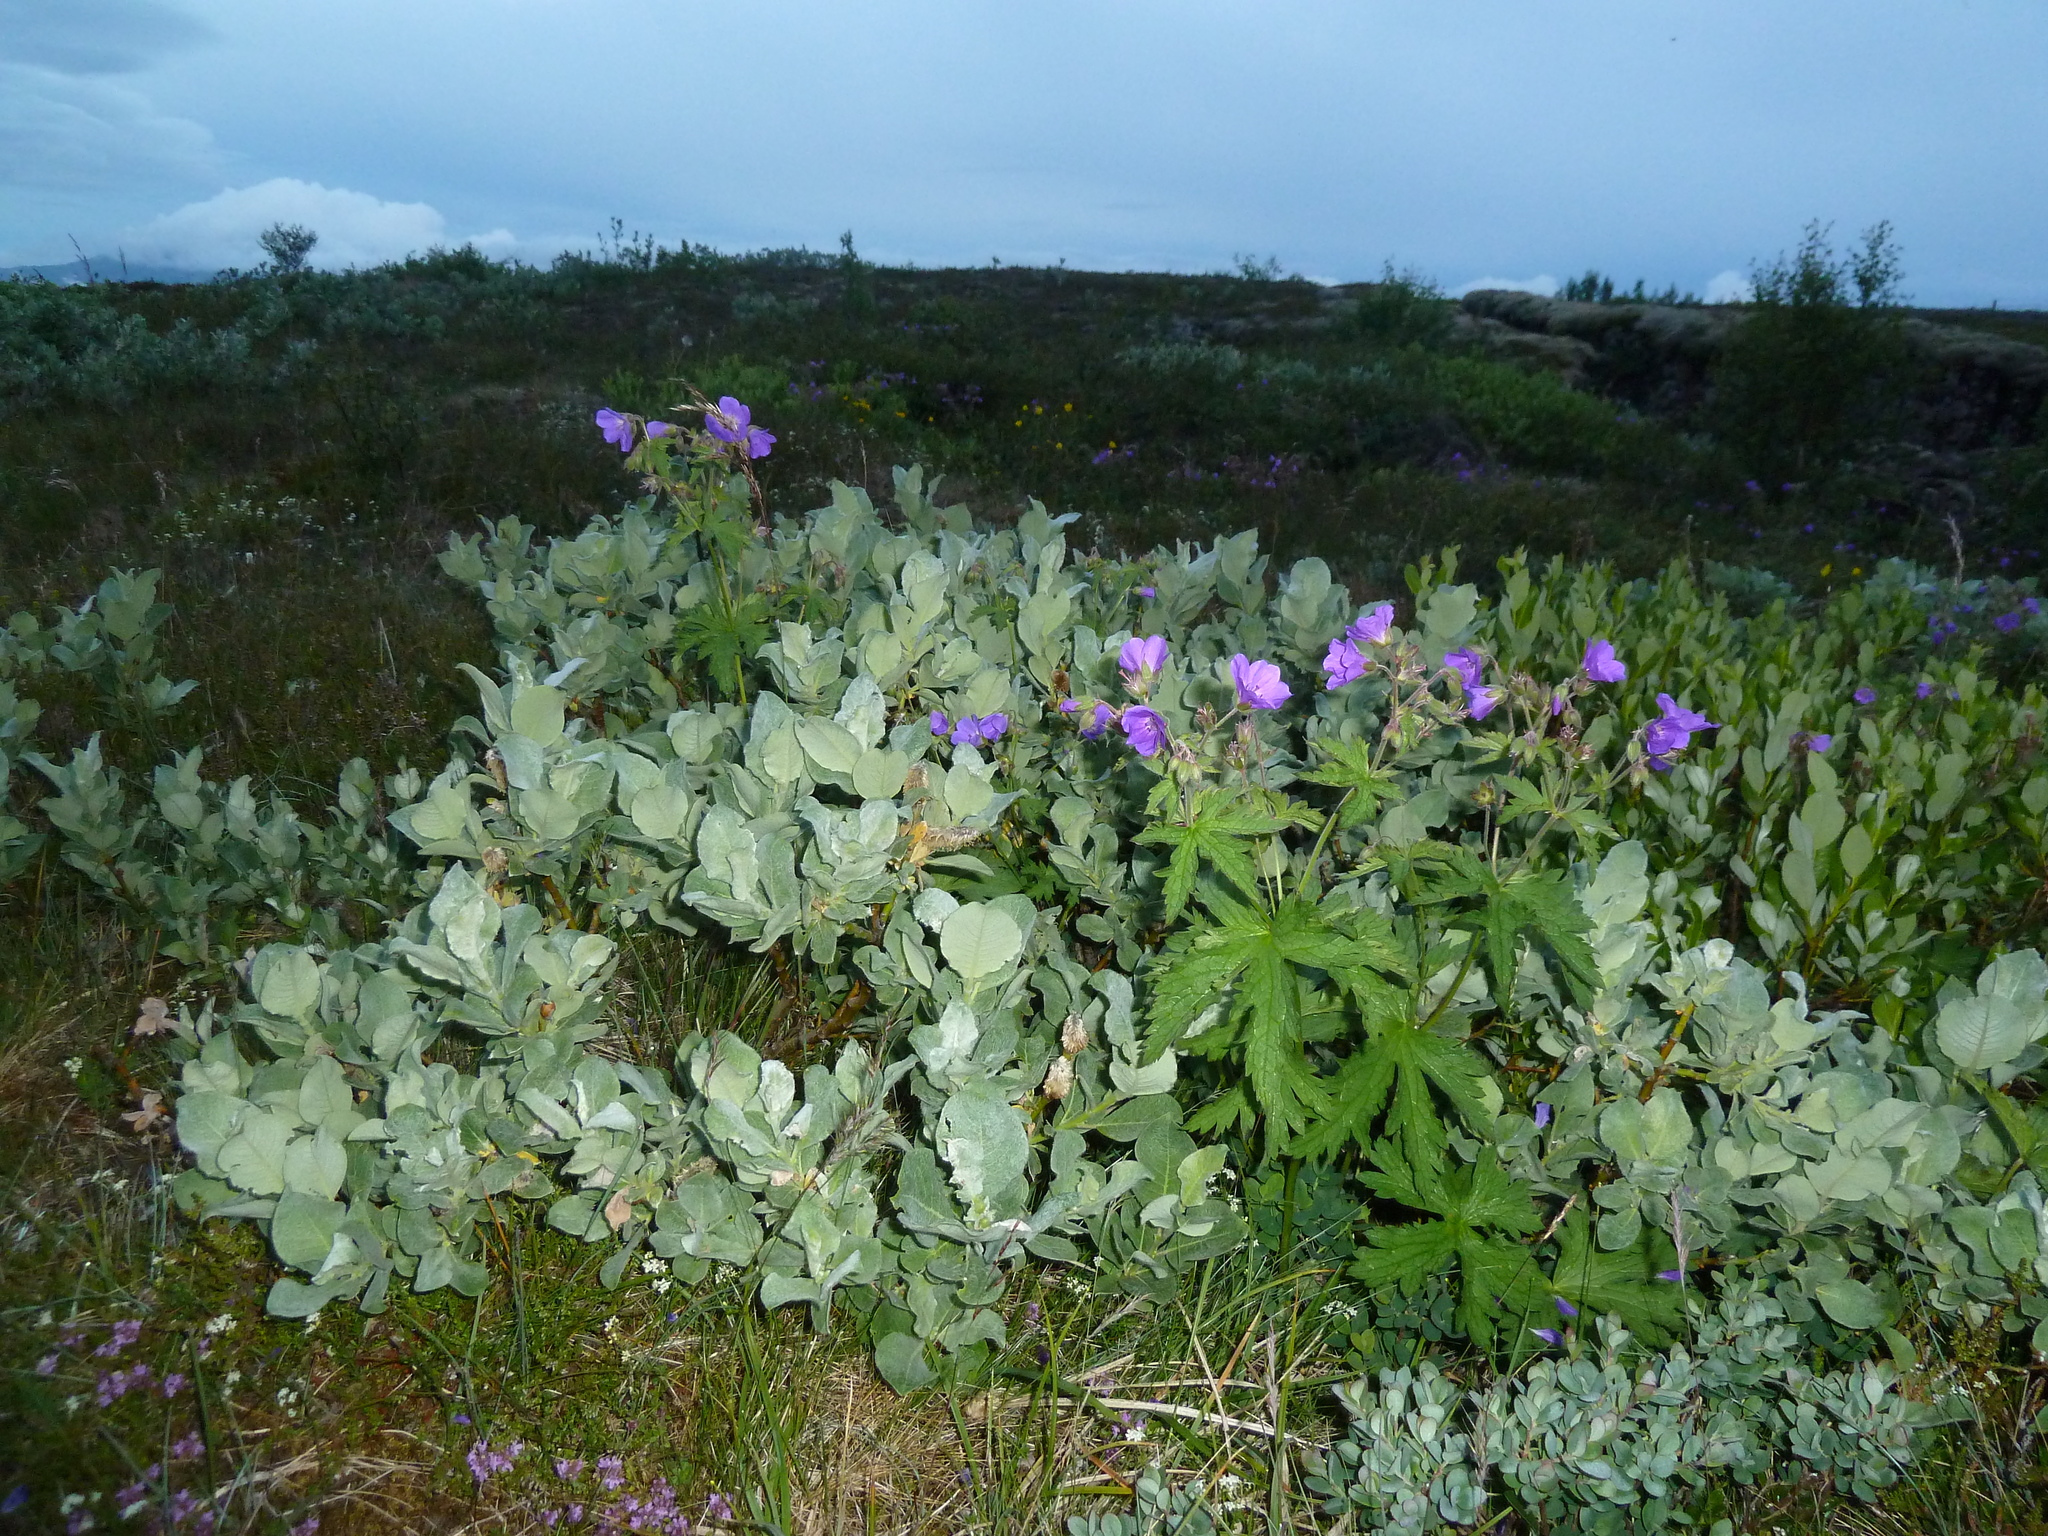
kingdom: Plantae
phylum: Tracheophyta
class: Magnoliopsida
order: Geraniales
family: Geraniaceae
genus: Geranium
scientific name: Geranium sylvaticum
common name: Wood crane's-bill
